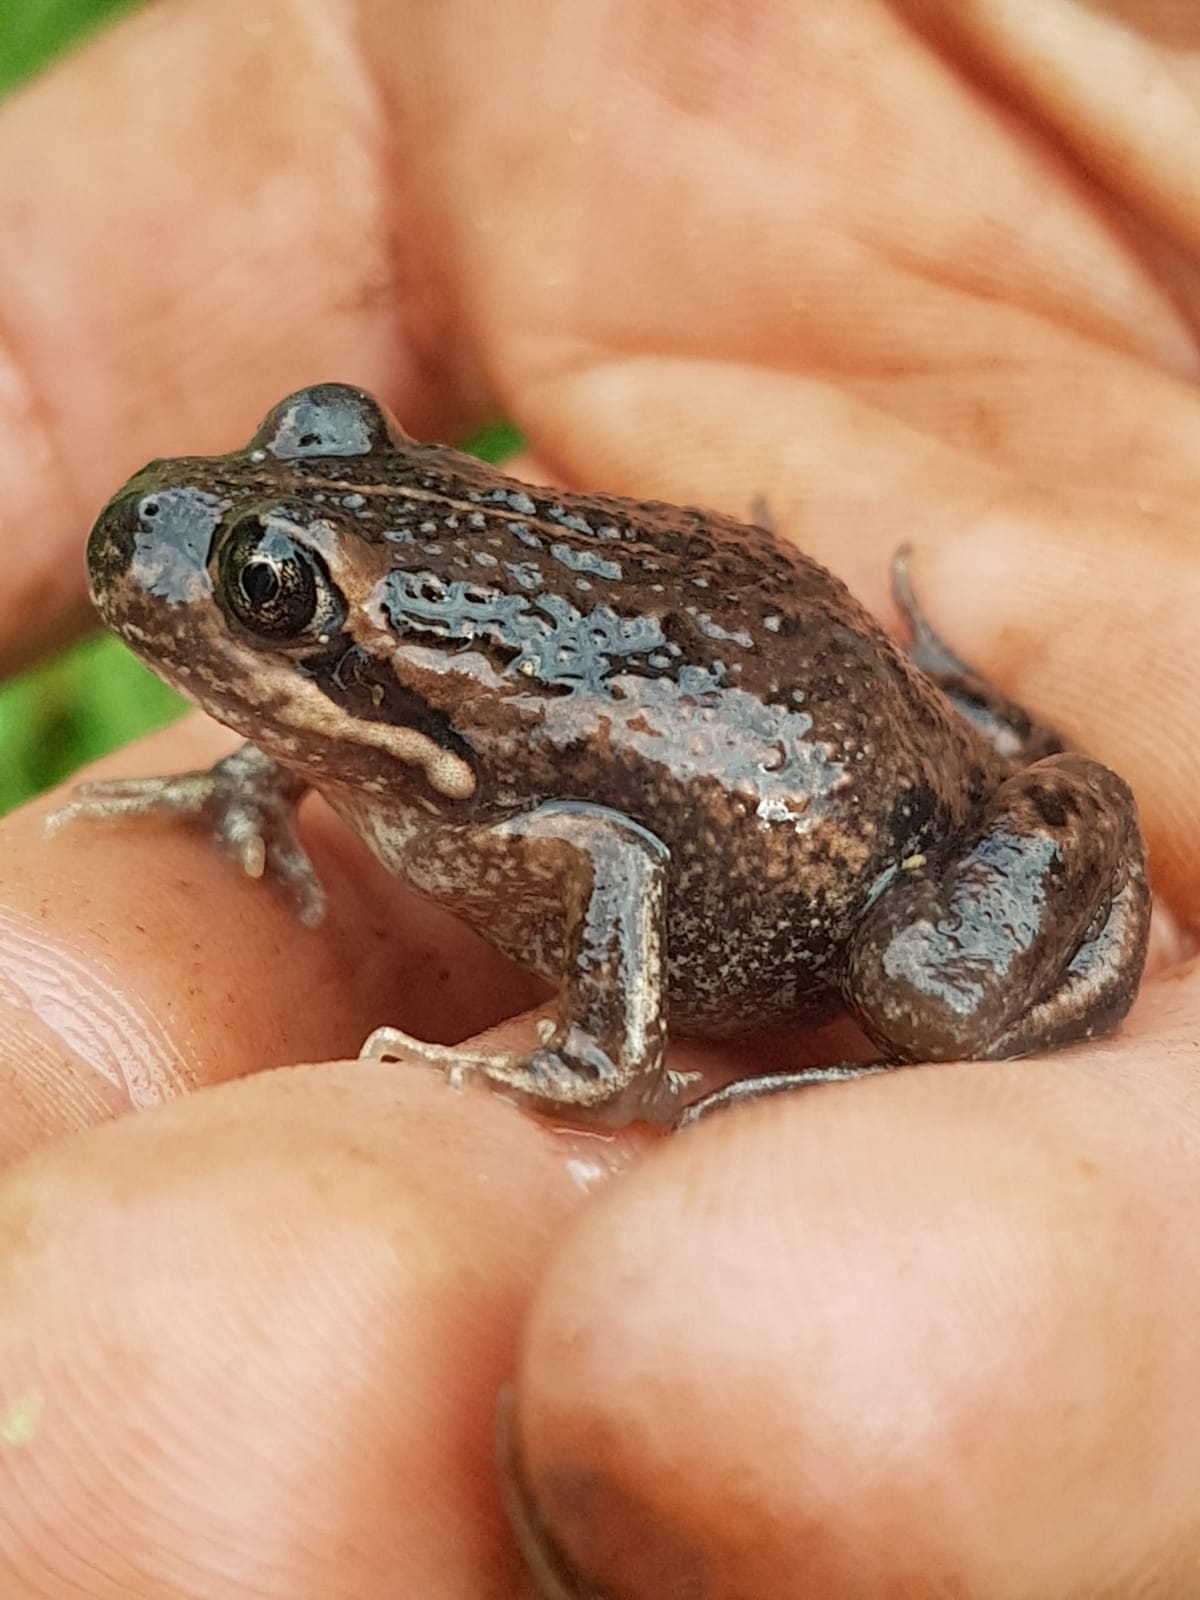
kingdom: Animalia
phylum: Chordata
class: Amphibia
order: Anura
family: Limnodynastidae
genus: Limnodynastes
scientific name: Limnodynastes dumerilii
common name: Banjo frog
